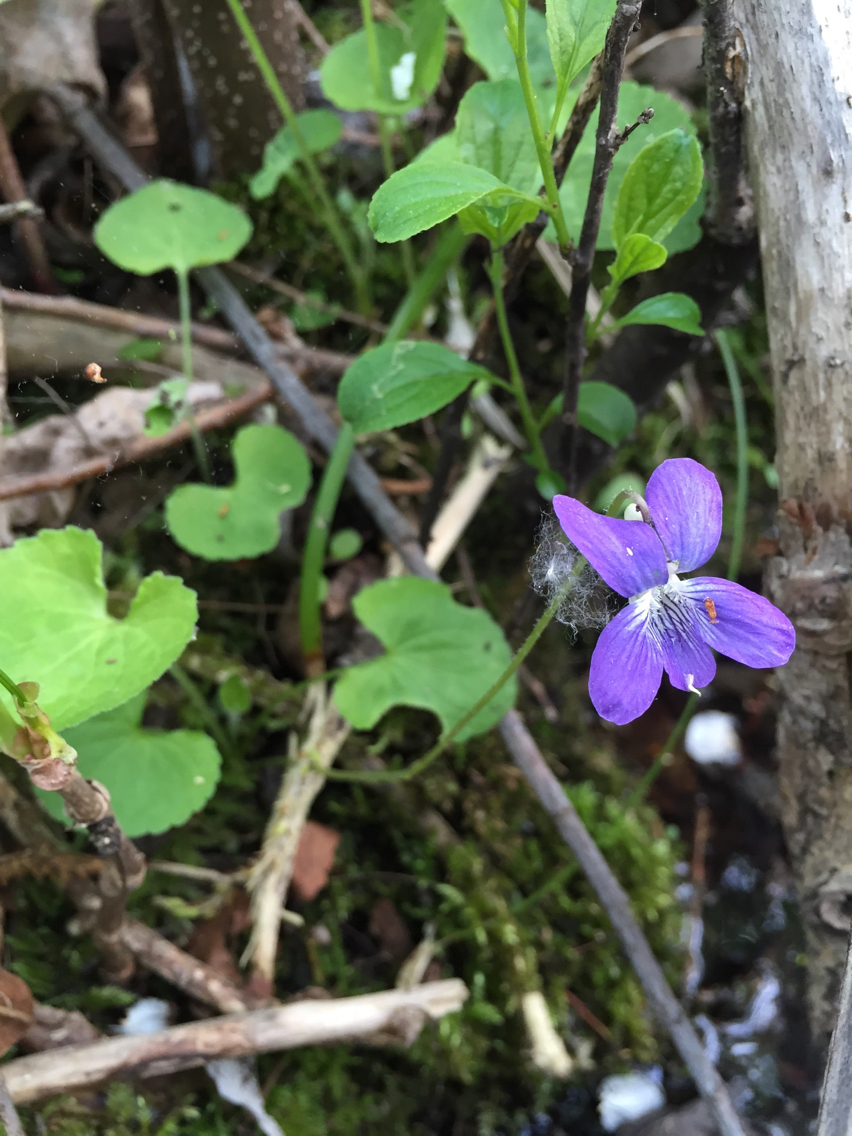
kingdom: Plantae
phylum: Tracheophyta
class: Magnoliopsida
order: Malpighiales
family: Violaceae
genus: Viola
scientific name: Viola sororia
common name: Dooryard violet
